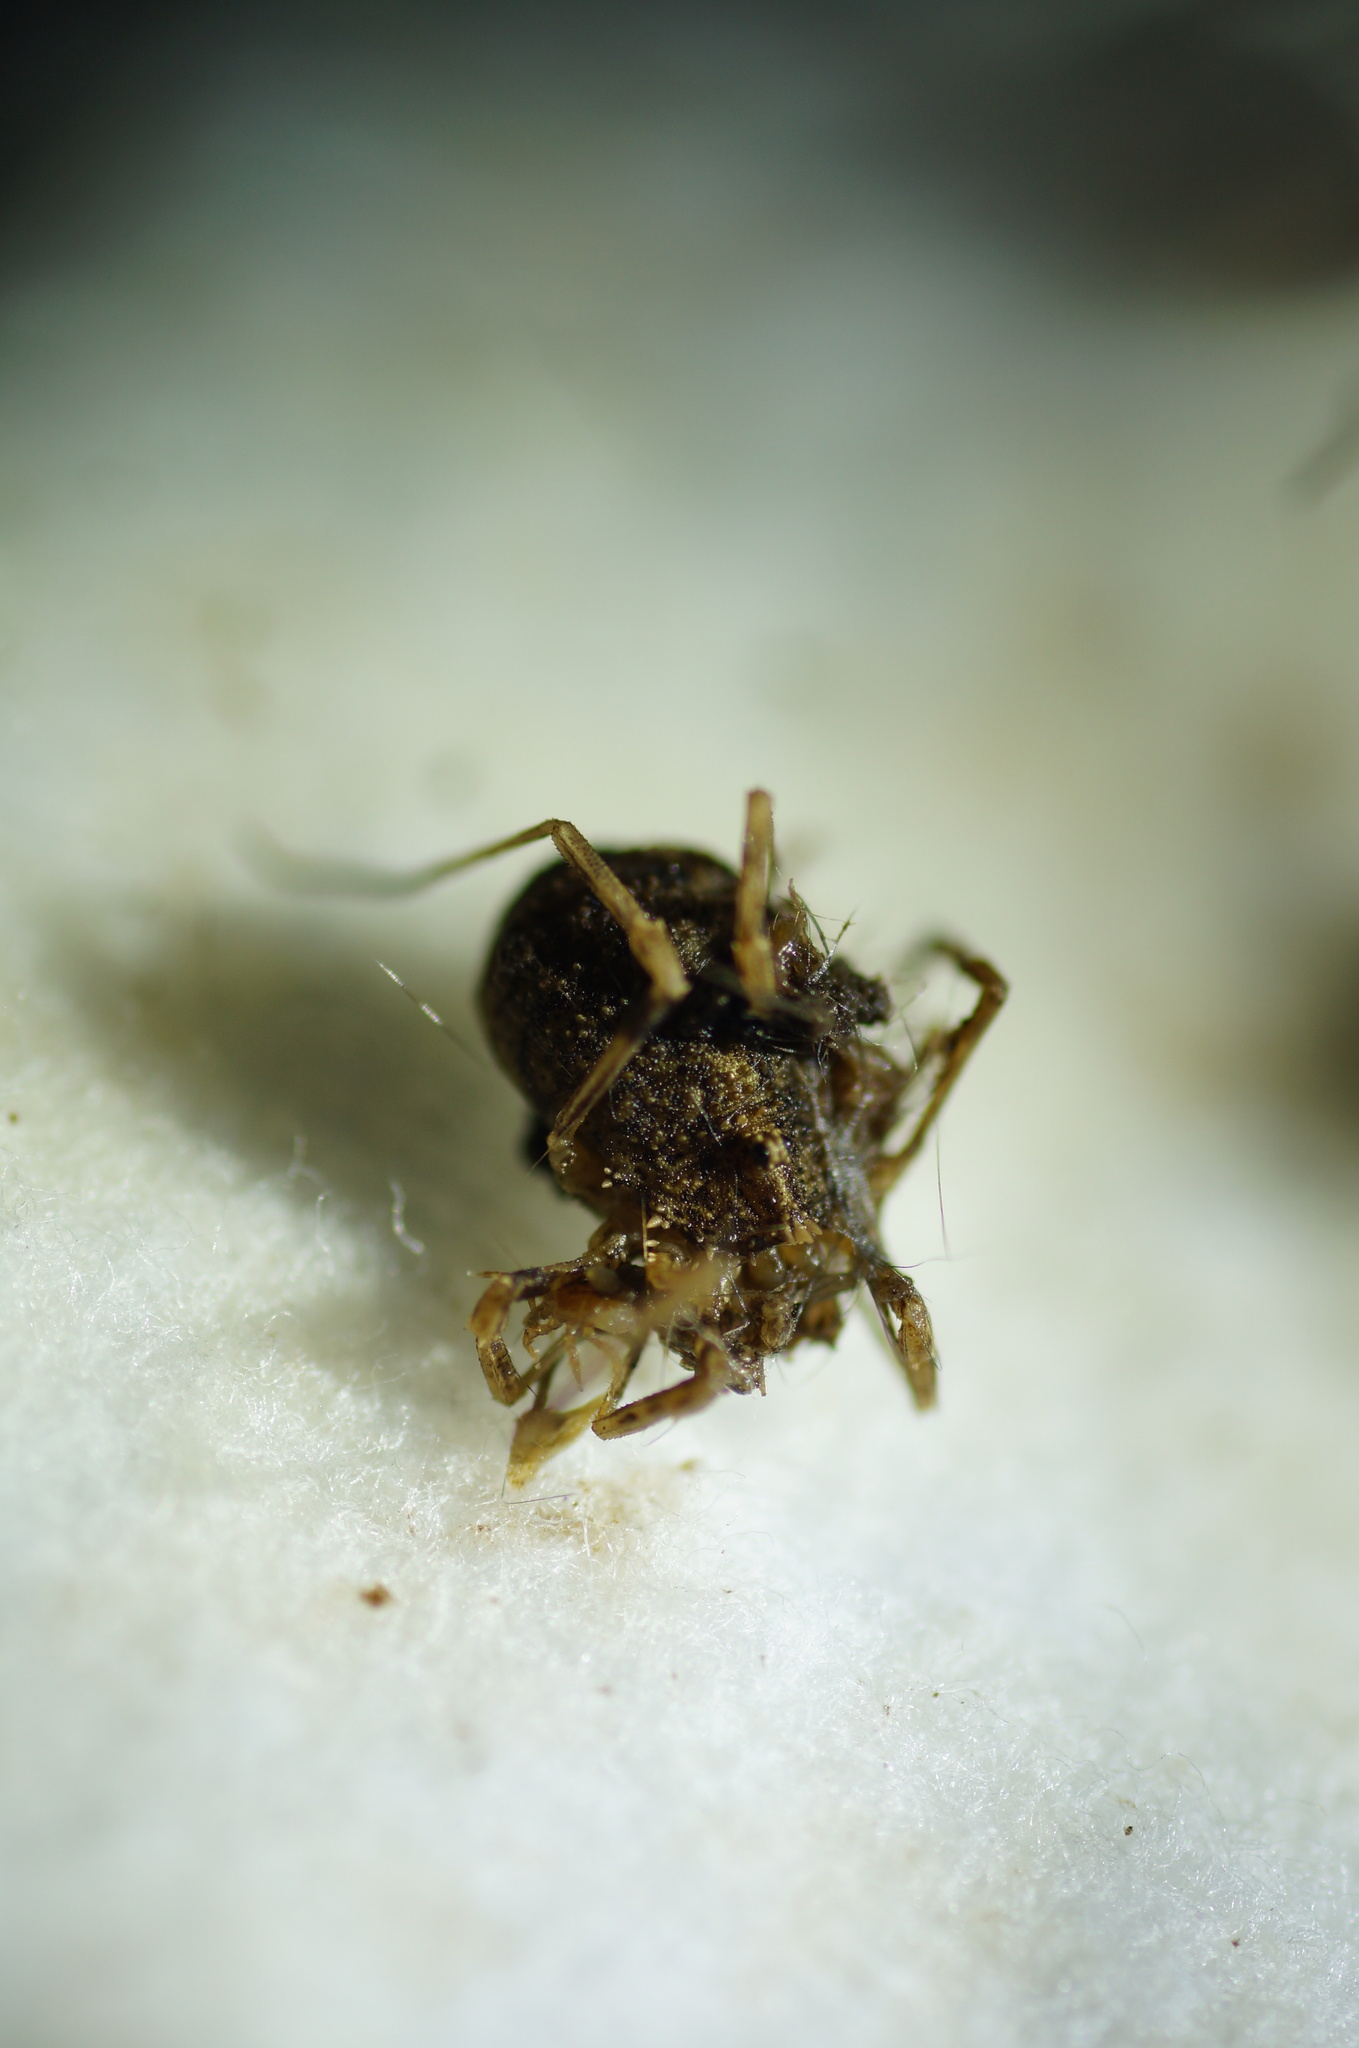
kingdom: Animalia
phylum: Arthropoda
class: Arachnida
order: Opiliones
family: Phalangiidae
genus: Odiellus
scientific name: Odiellus lendlii
